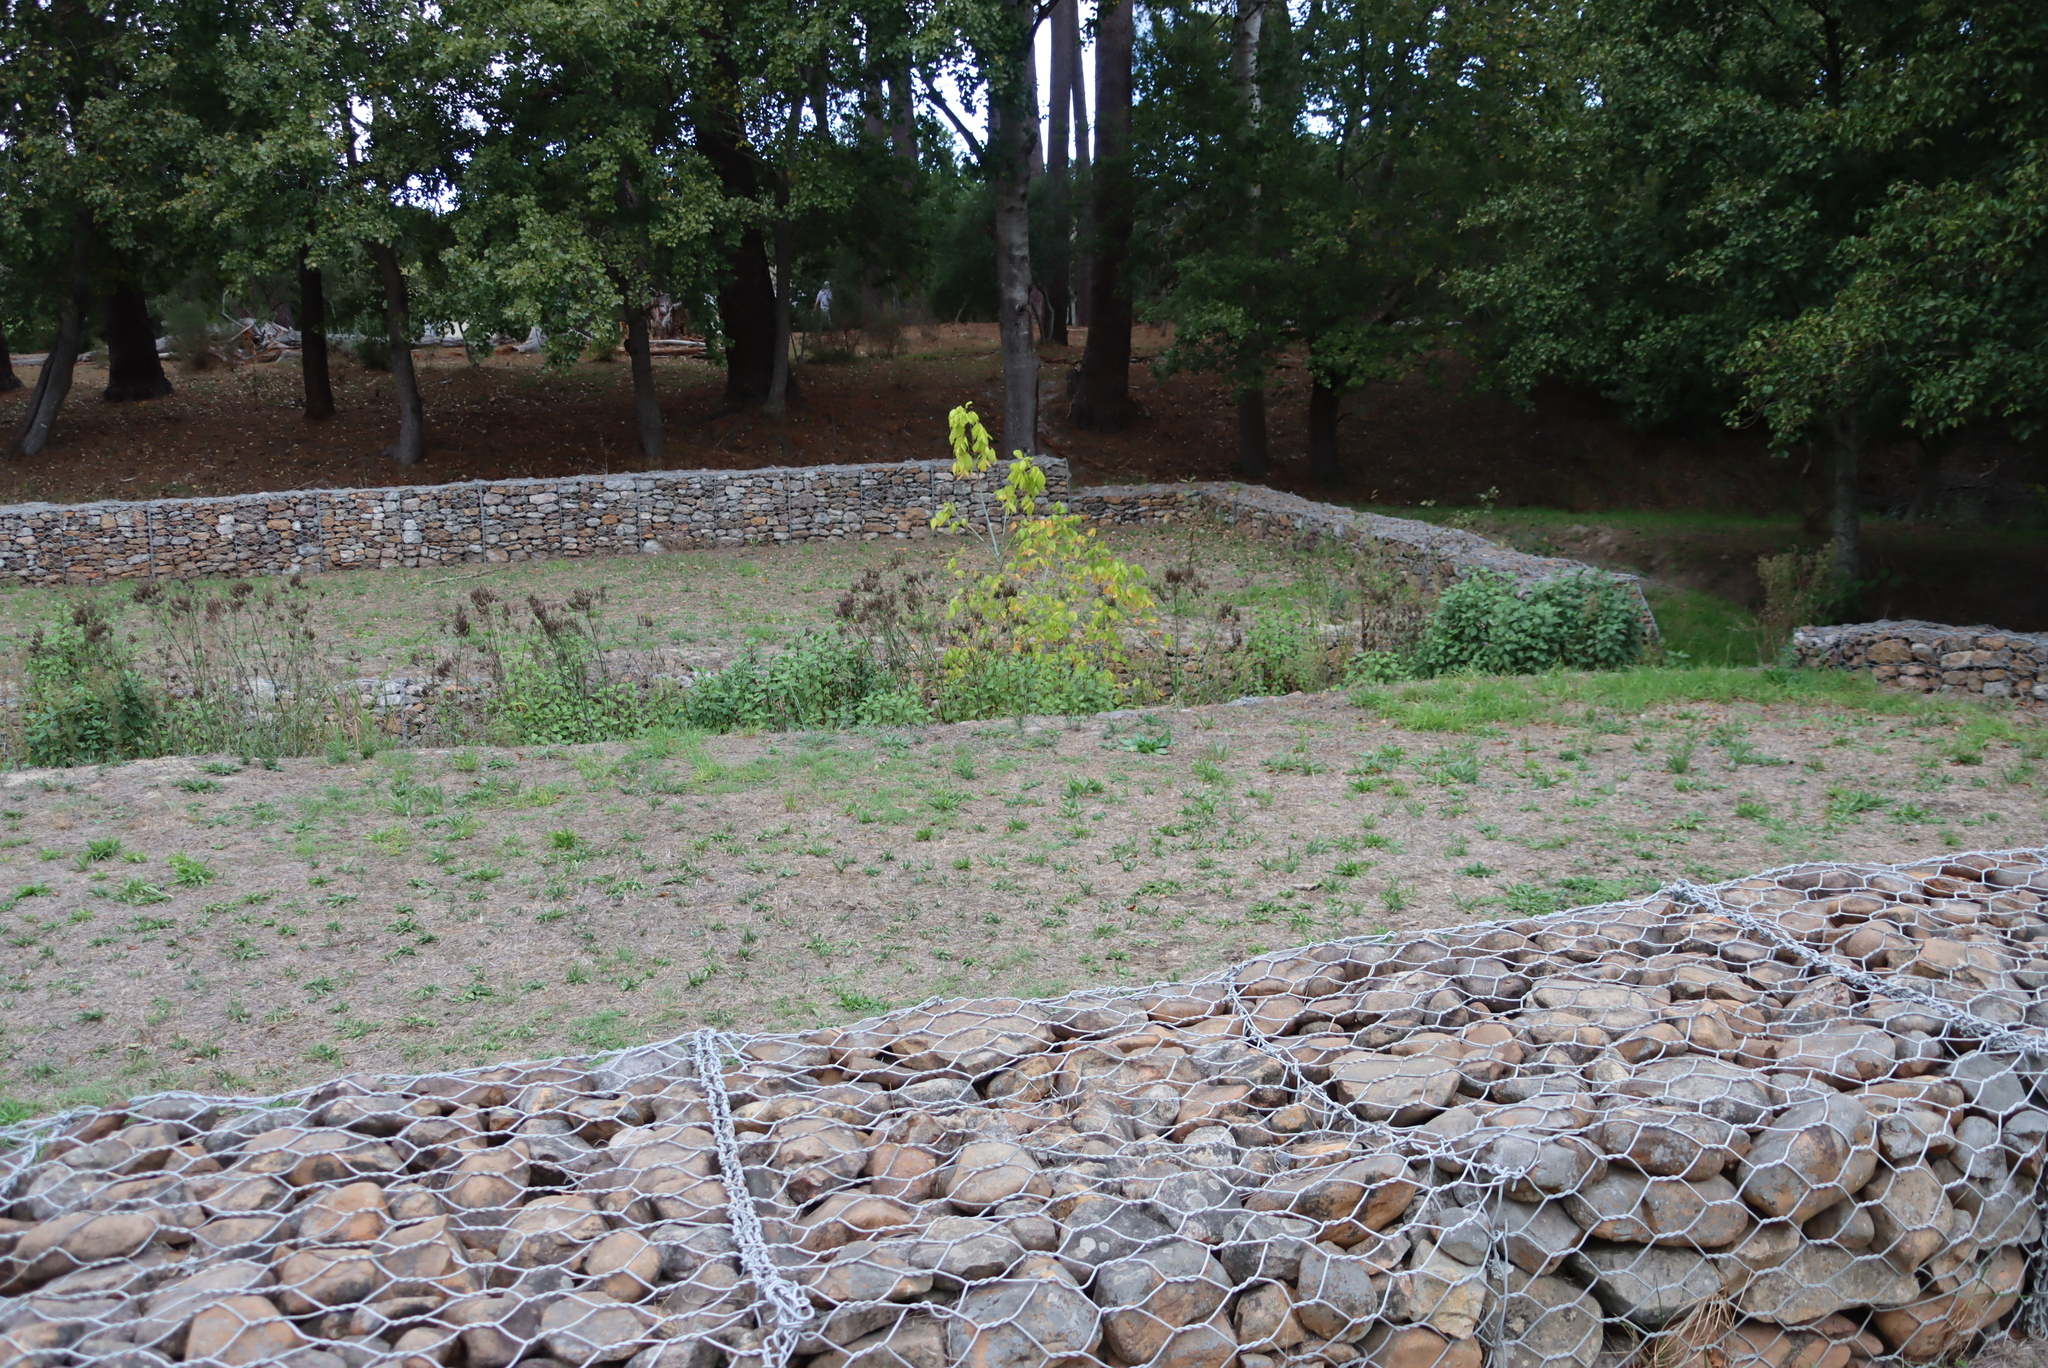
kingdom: Plantae
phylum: Tracheophyta
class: Magnoliopsida
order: Lamiales
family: Verbenaceae
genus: Verbena
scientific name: Verbena bonariensis
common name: Purpletop vervain
